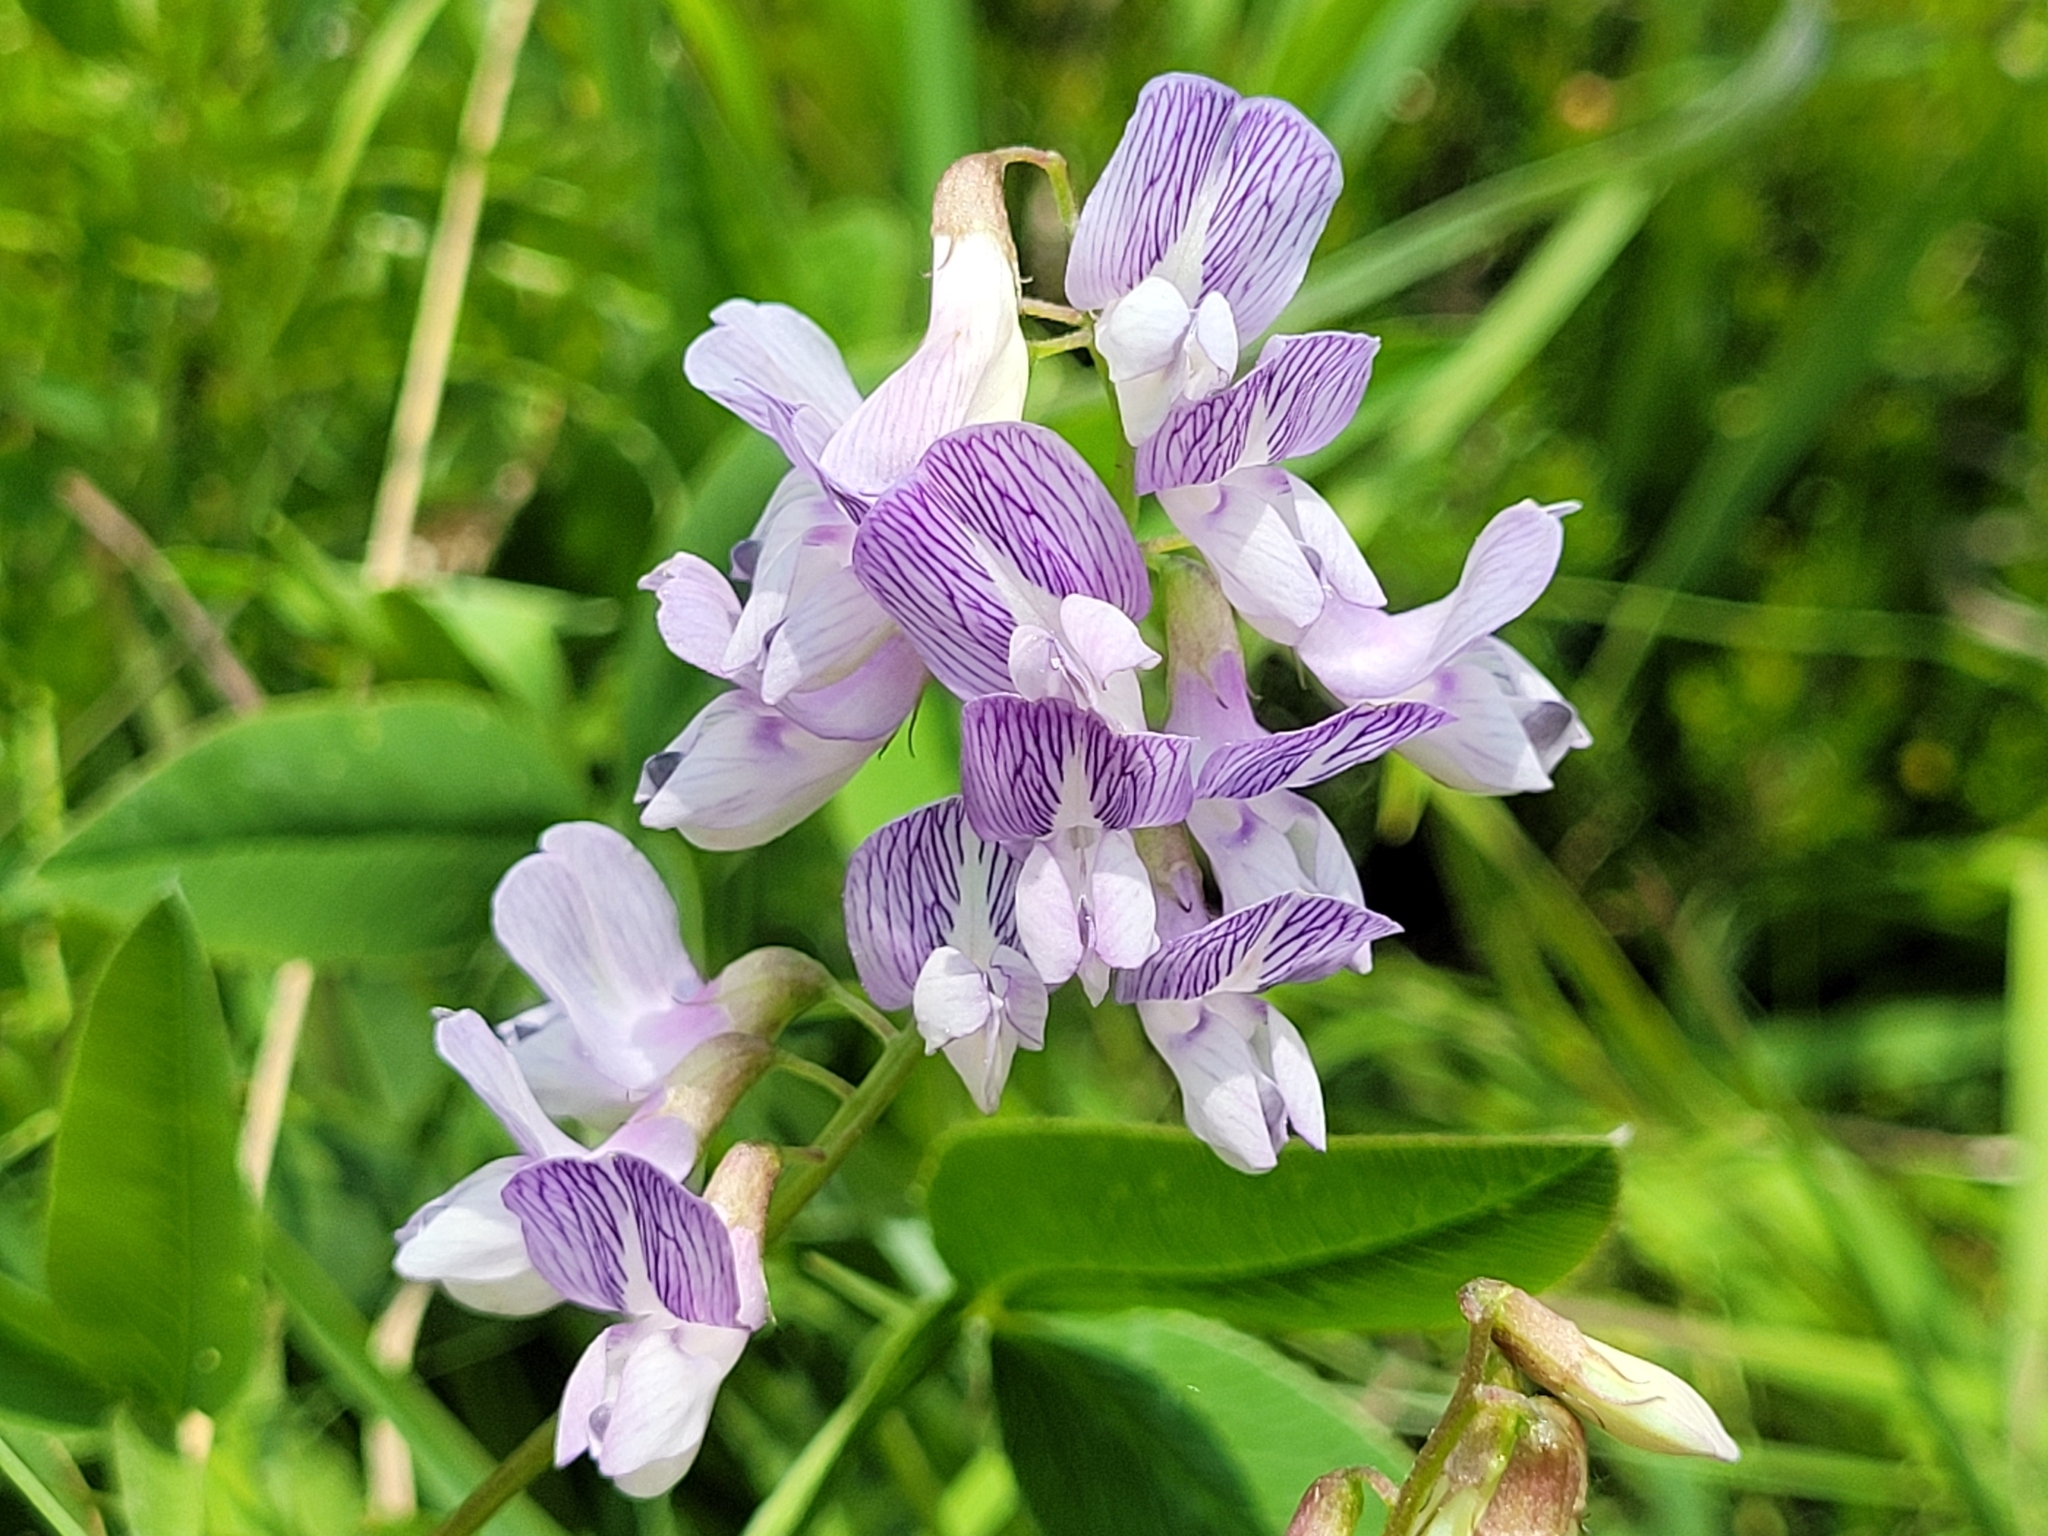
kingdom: Plantae
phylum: Tracheophyta
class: Magnoliopsida
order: Fabales
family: Fabaceae
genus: Vicia
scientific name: Vicia sylvatica
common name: Wood vetch
